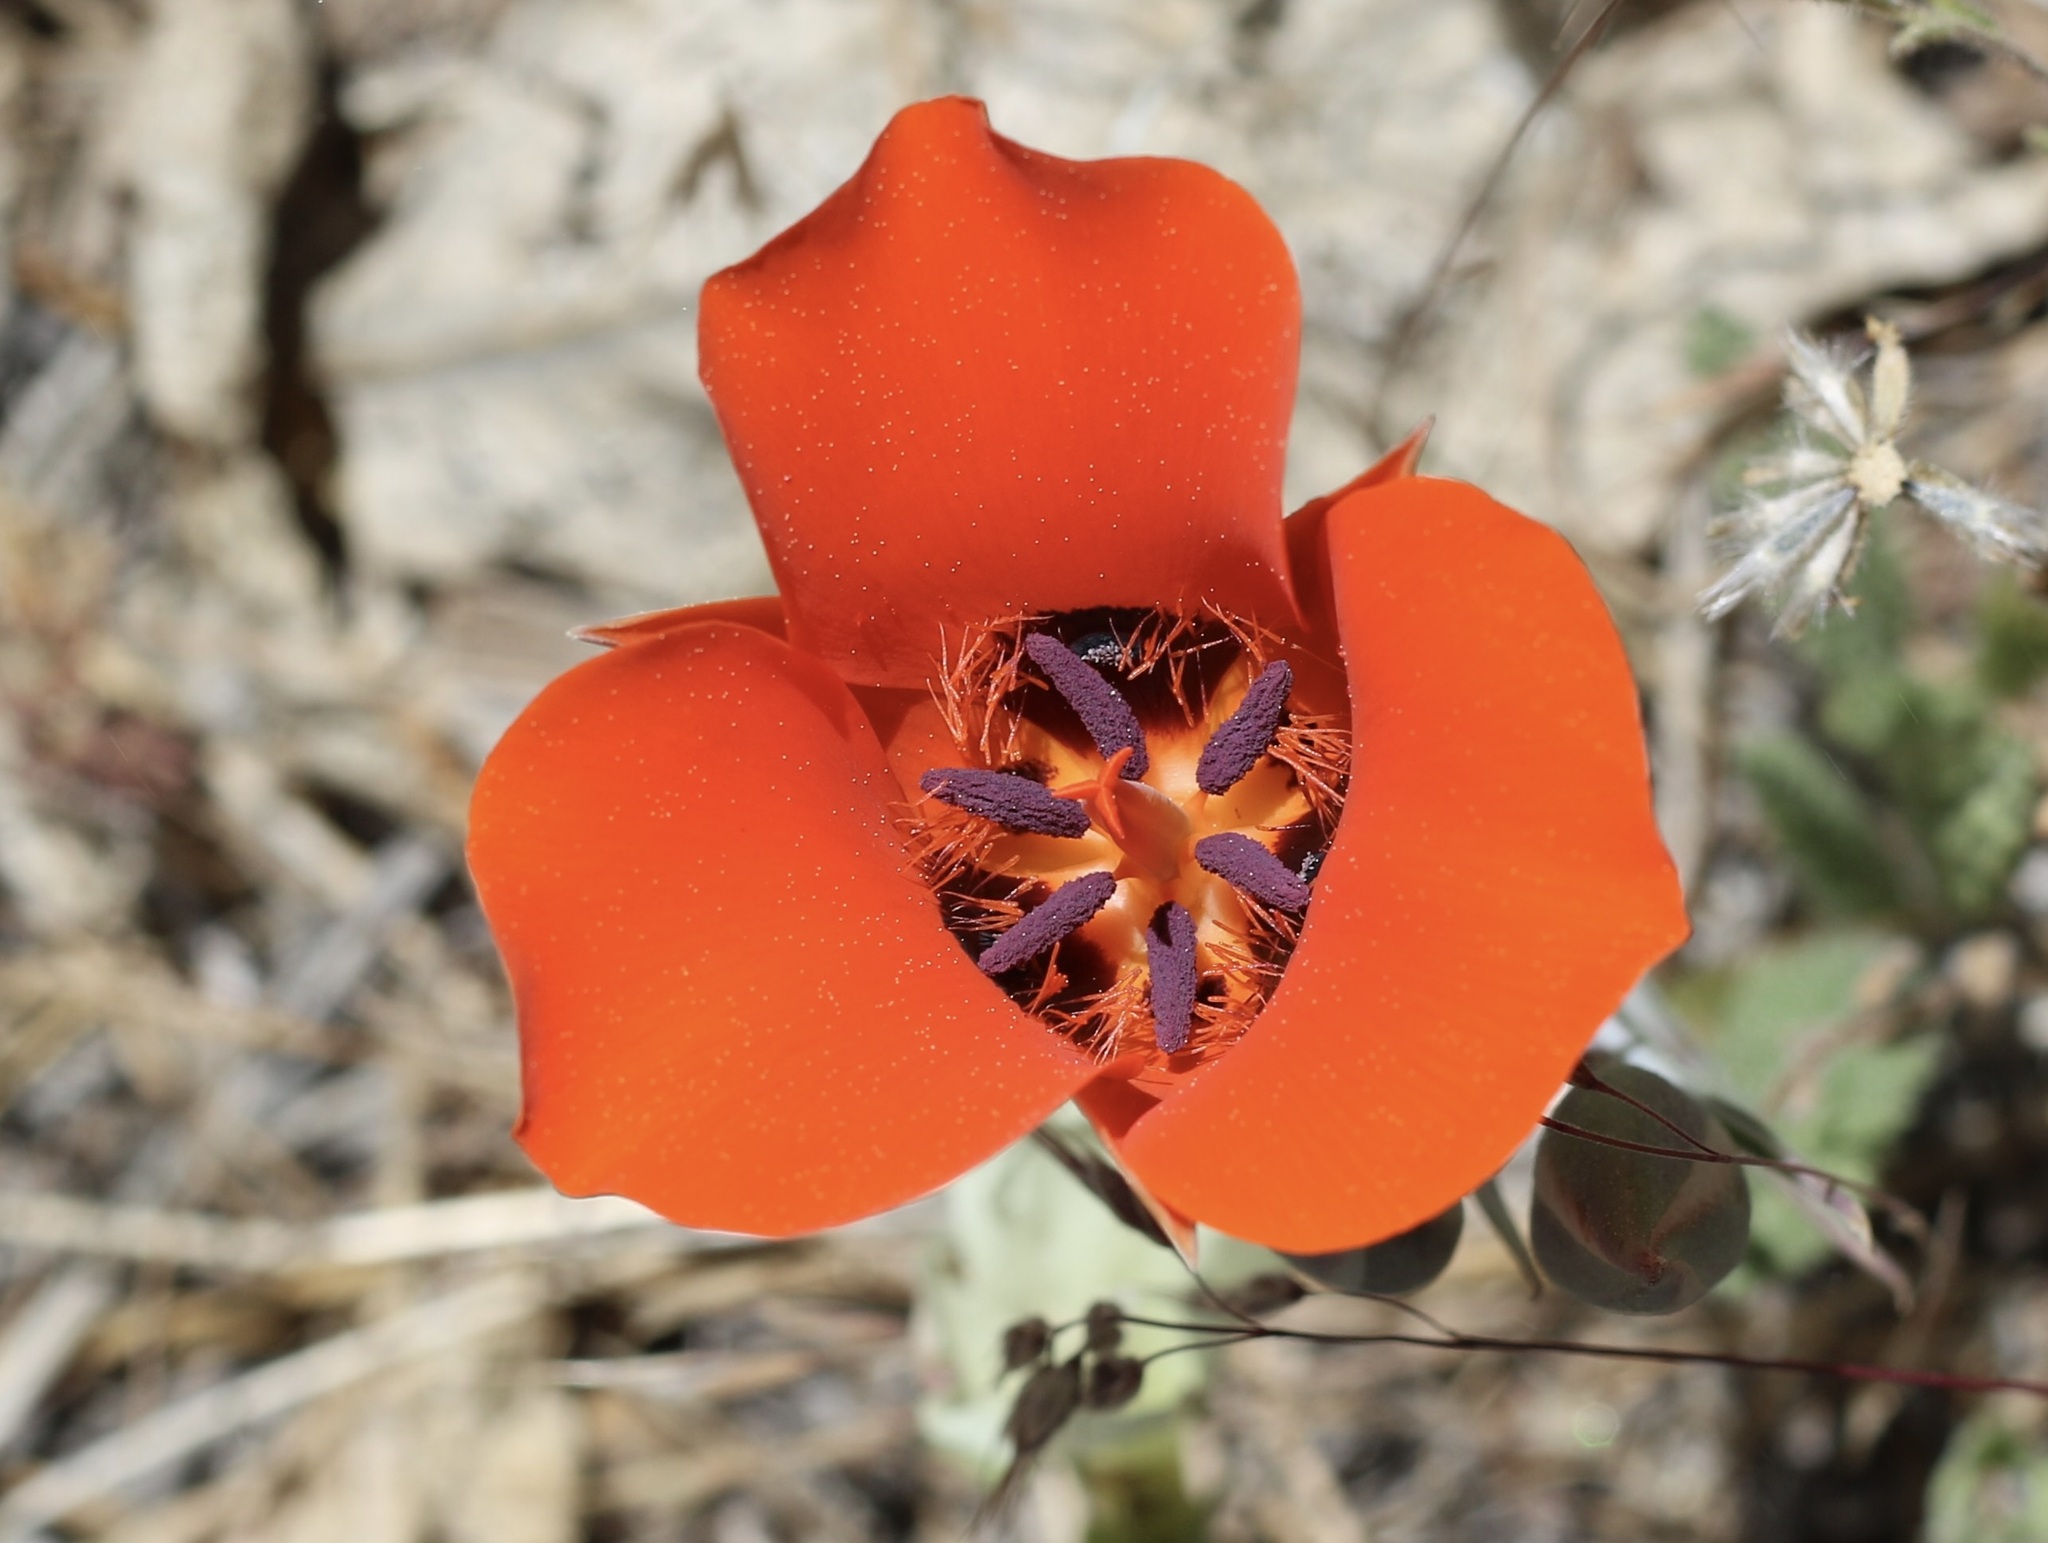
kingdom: Plantae
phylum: Tracheophyta
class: Liliopsida
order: Liliales
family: Liliaceae
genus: Calochortus
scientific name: Calochortus kennedyi
